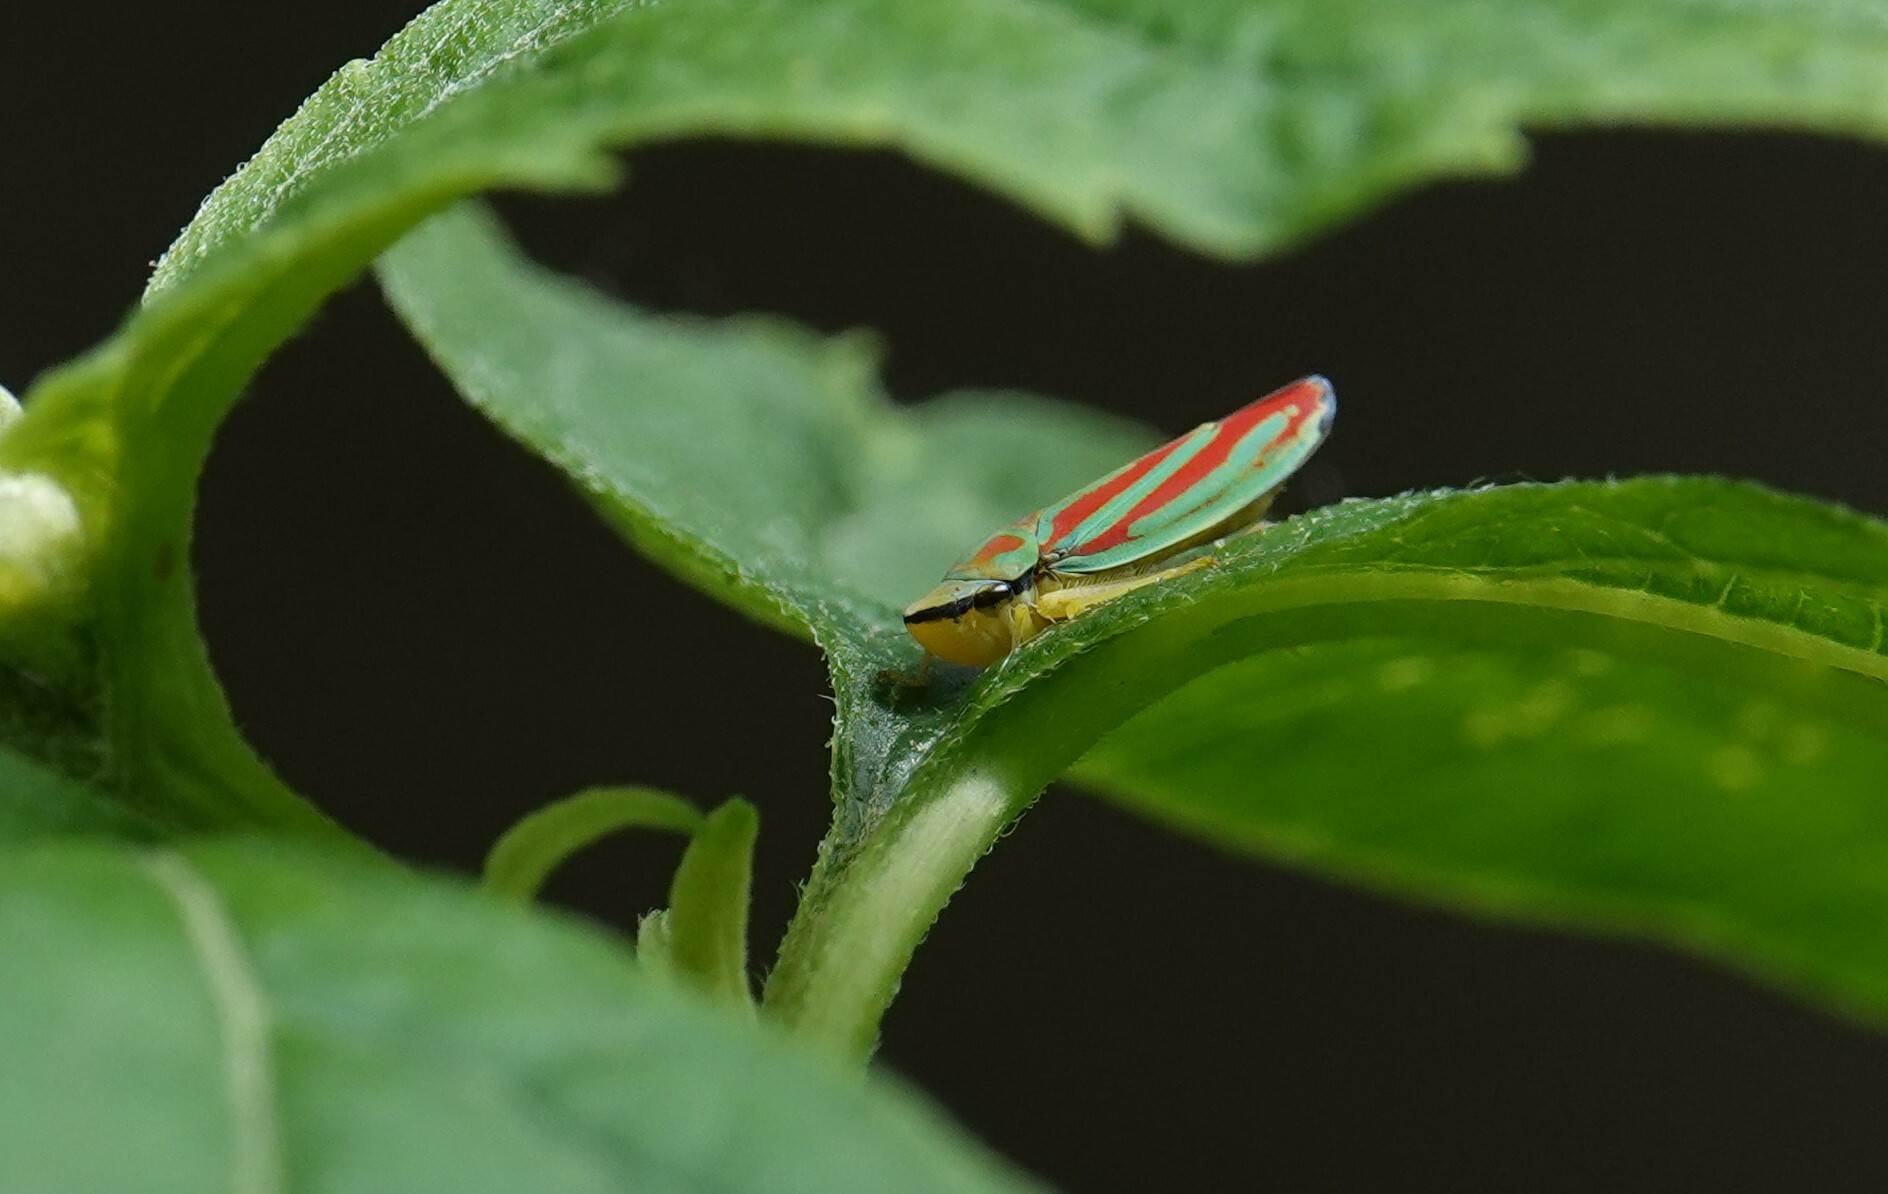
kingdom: Animalia
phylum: Arthropoda
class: Insecta
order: Hemiptera
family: Cicadellidae
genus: Graphocephala
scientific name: Graphocephala coccinea
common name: Candy-striped leafhopper
